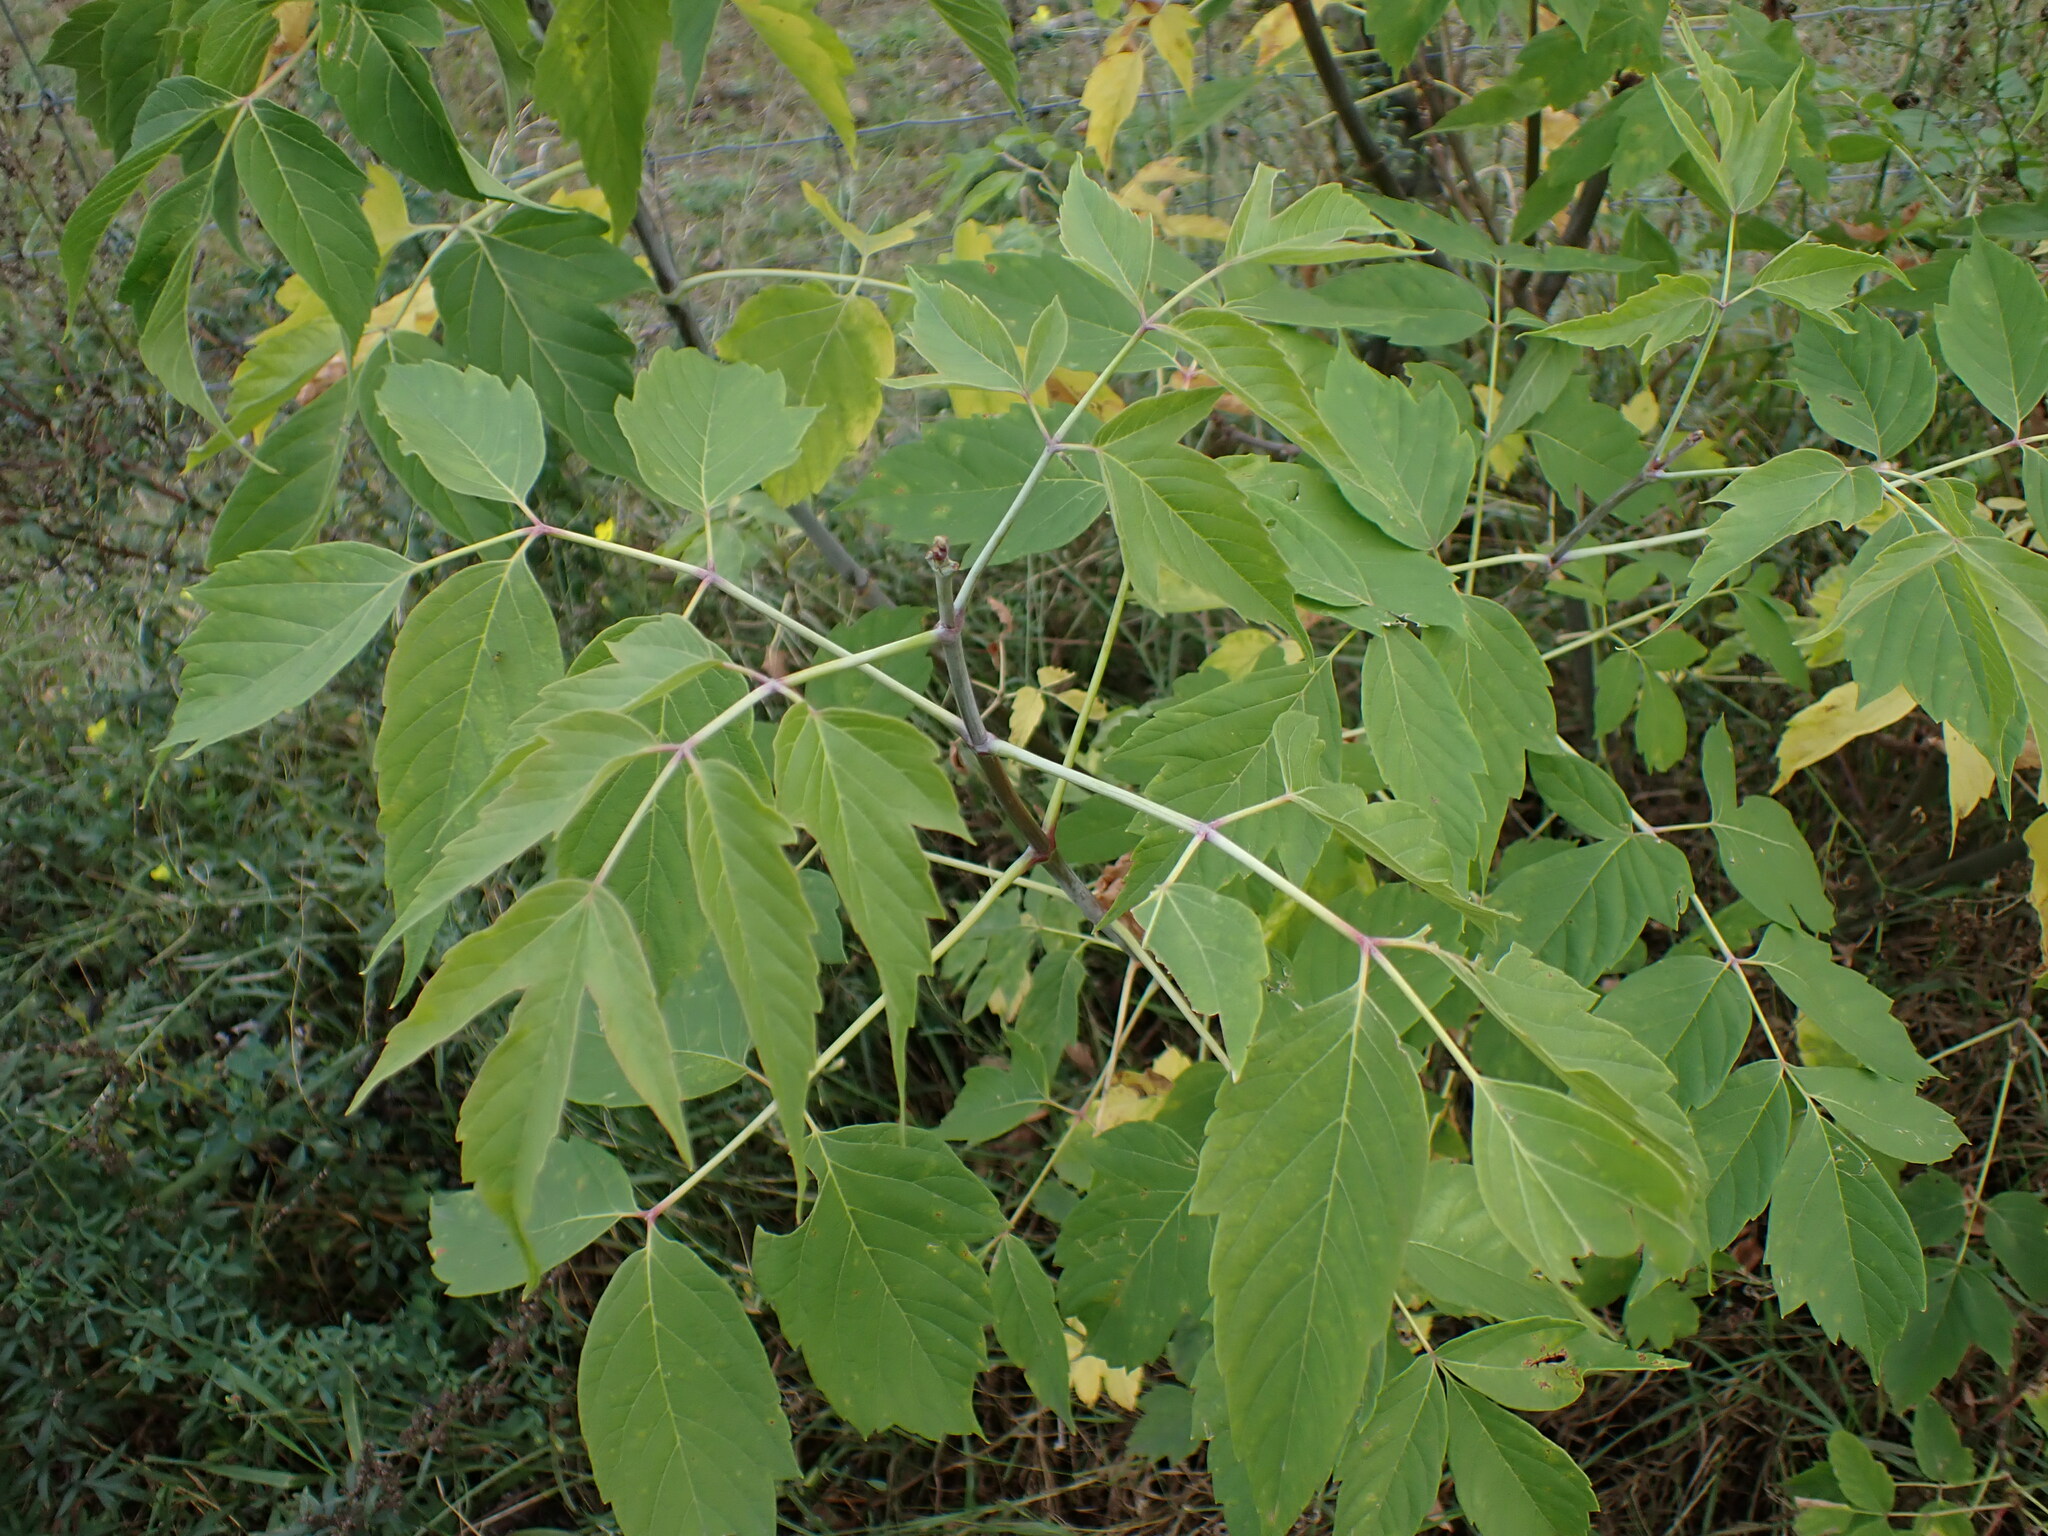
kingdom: Plantae
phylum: Tracheophyta
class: Magnoliopsida
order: Sapindales
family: Sapindaceae
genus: Acer
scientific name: Acer negundo
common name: Ashleaf maple
